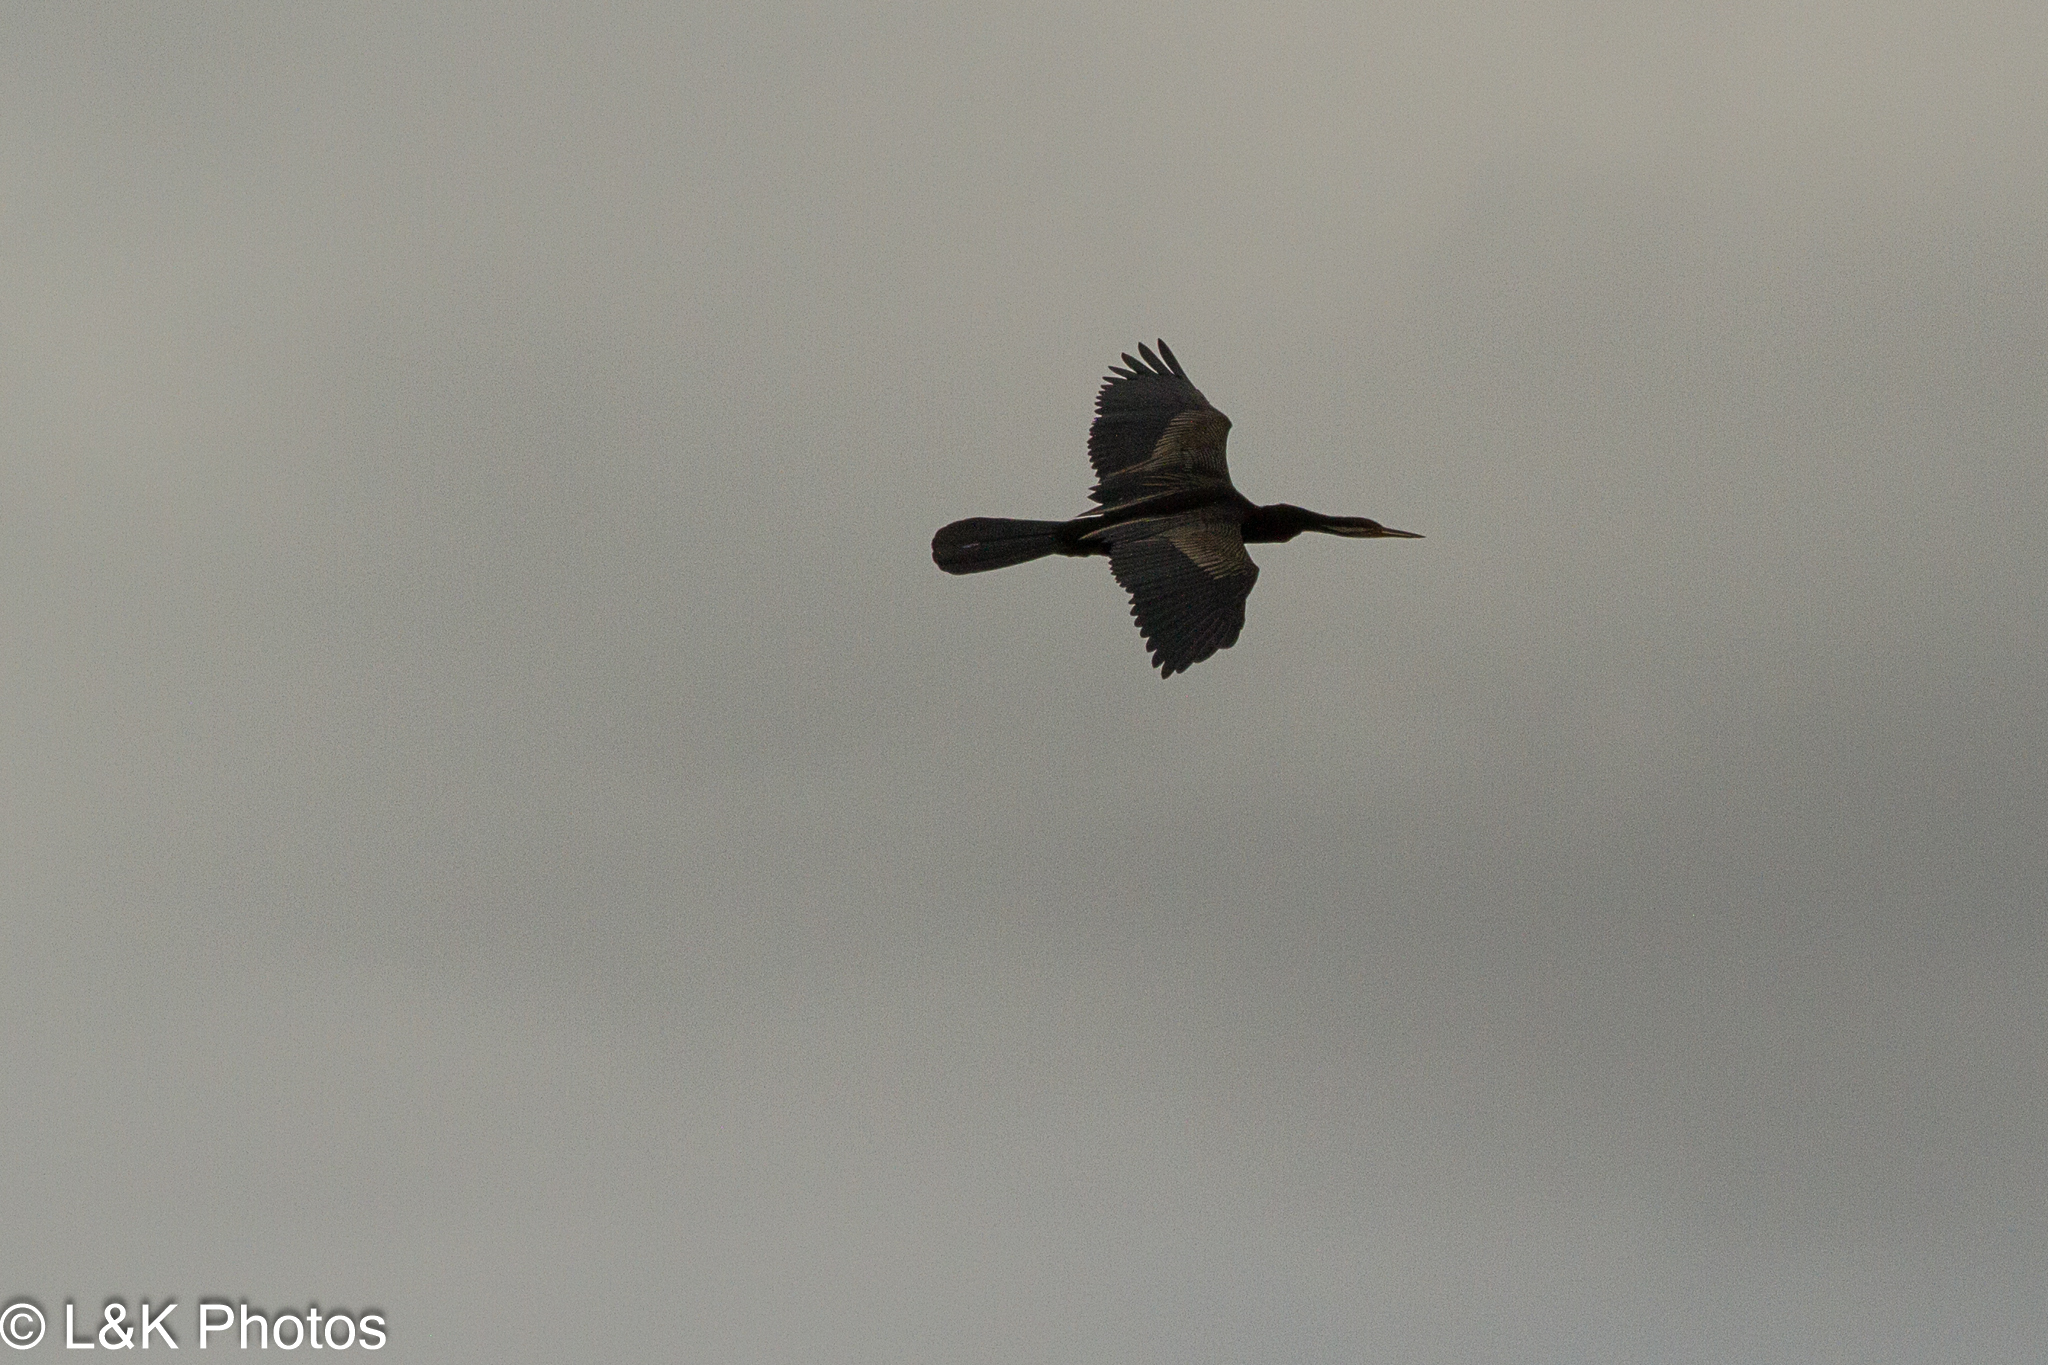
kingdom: Animalia
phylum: Chordata
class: Aves
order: Suliformes
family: Anhingidae
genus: Anhinga
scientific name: Anhinga novaehollandiae
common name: Australasian darter
